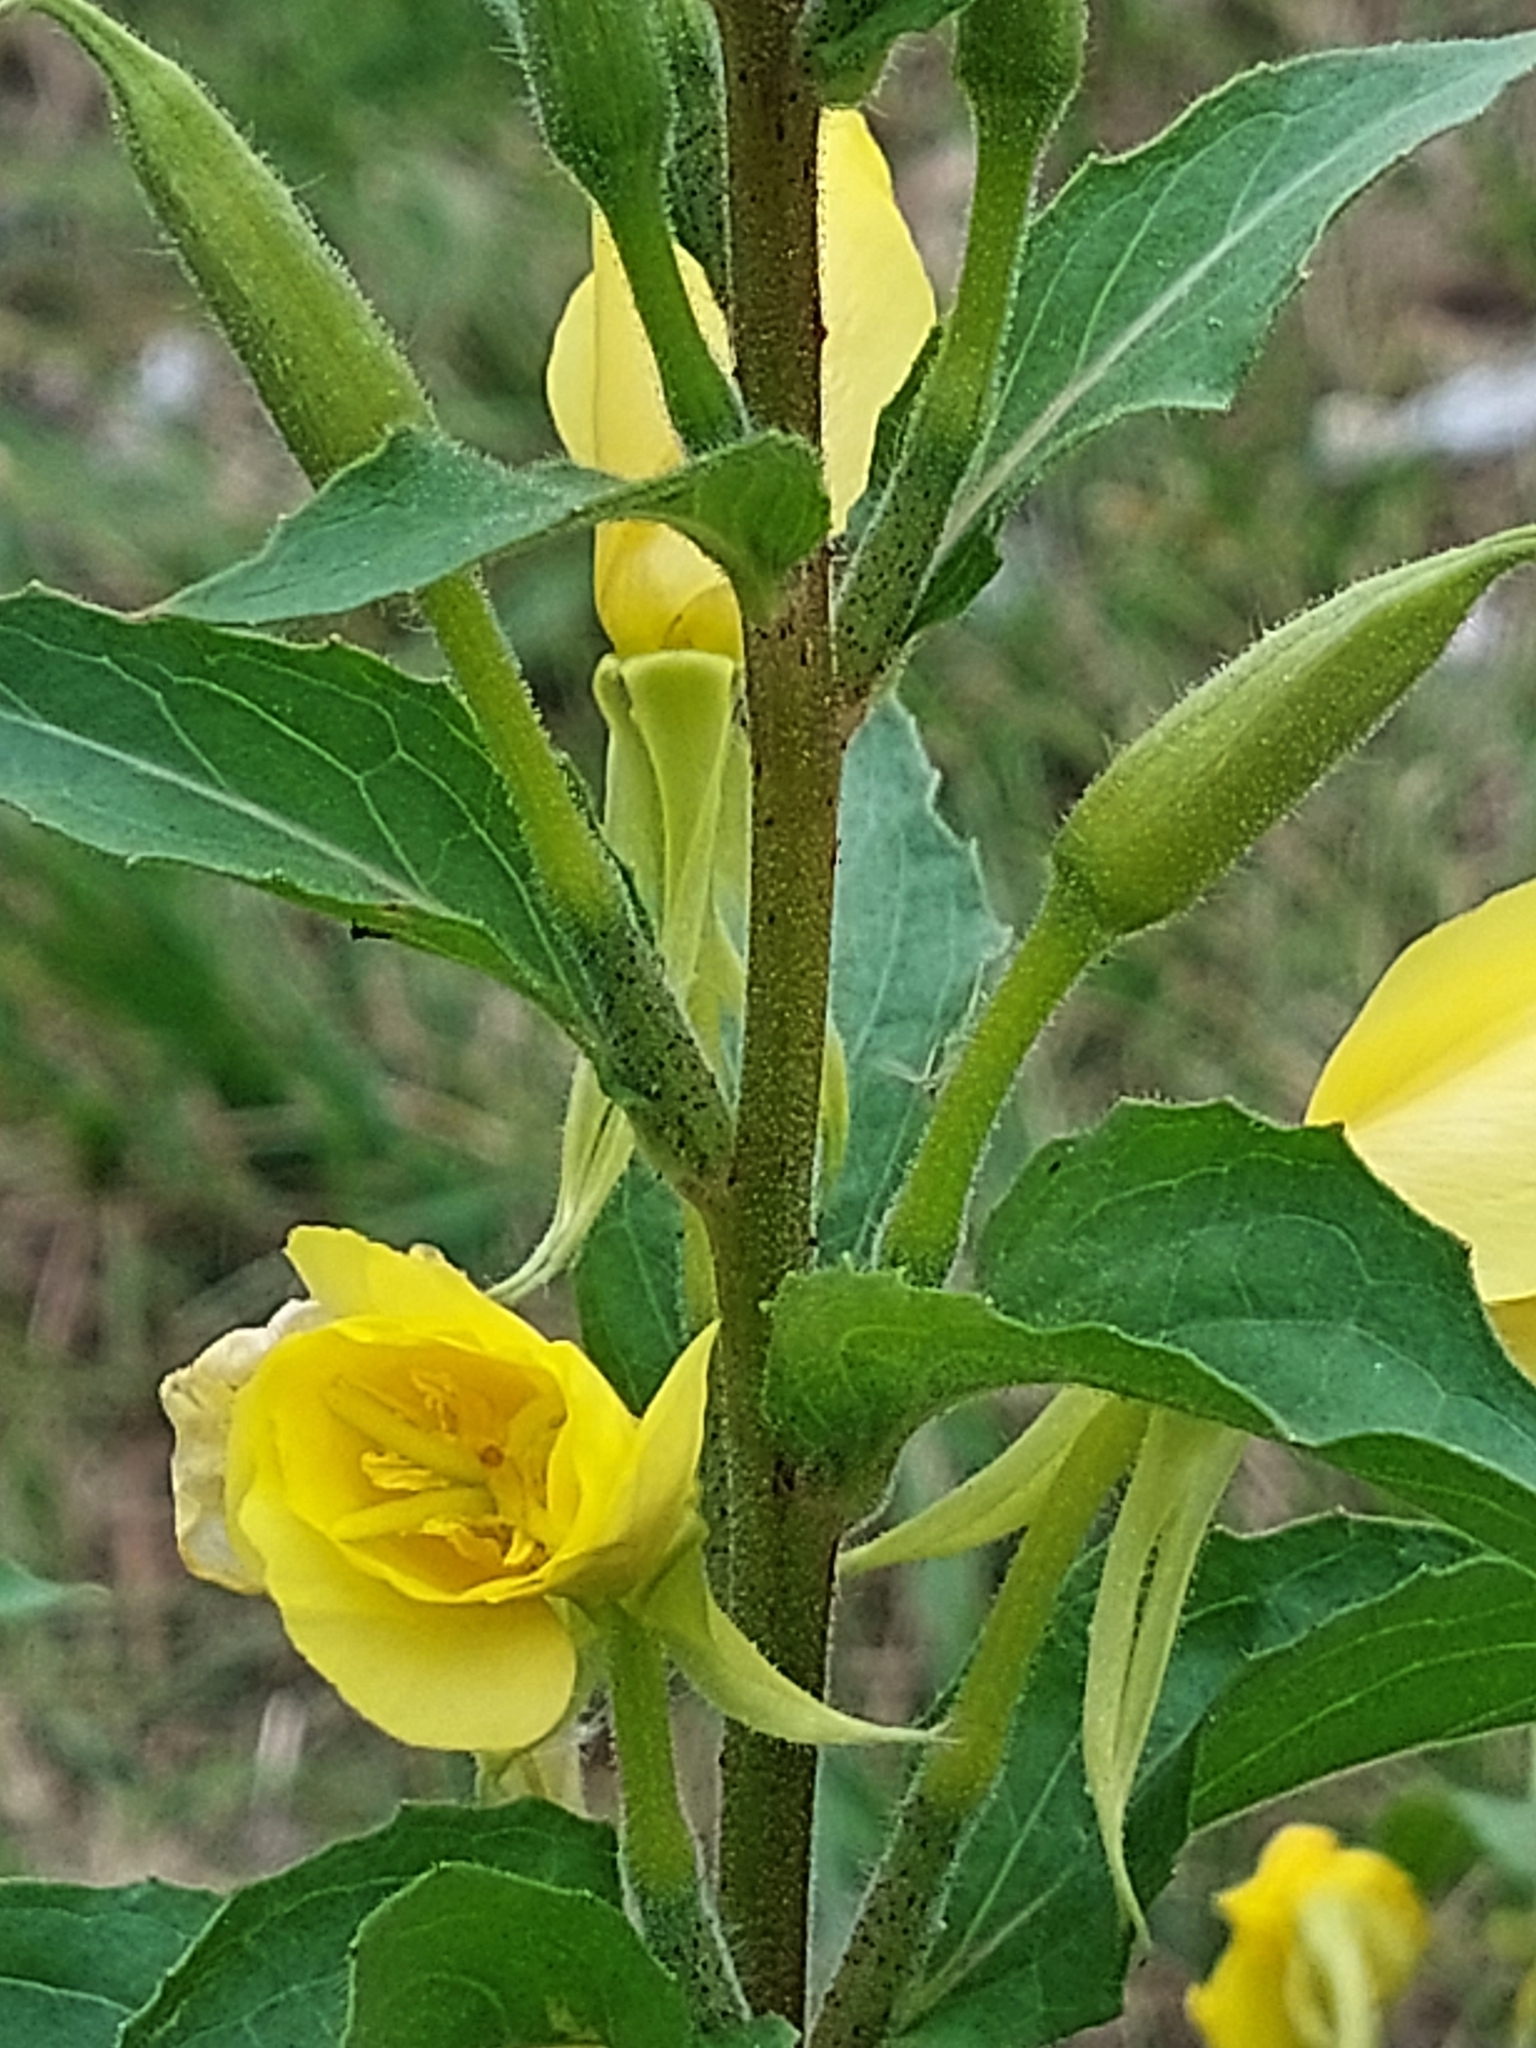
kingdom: Plantae
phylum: Tracheophyta
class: Magnoliopsida
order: Myrtales
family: Onagraceae
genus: Oenothera
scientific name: Oenothera rubricaulis
